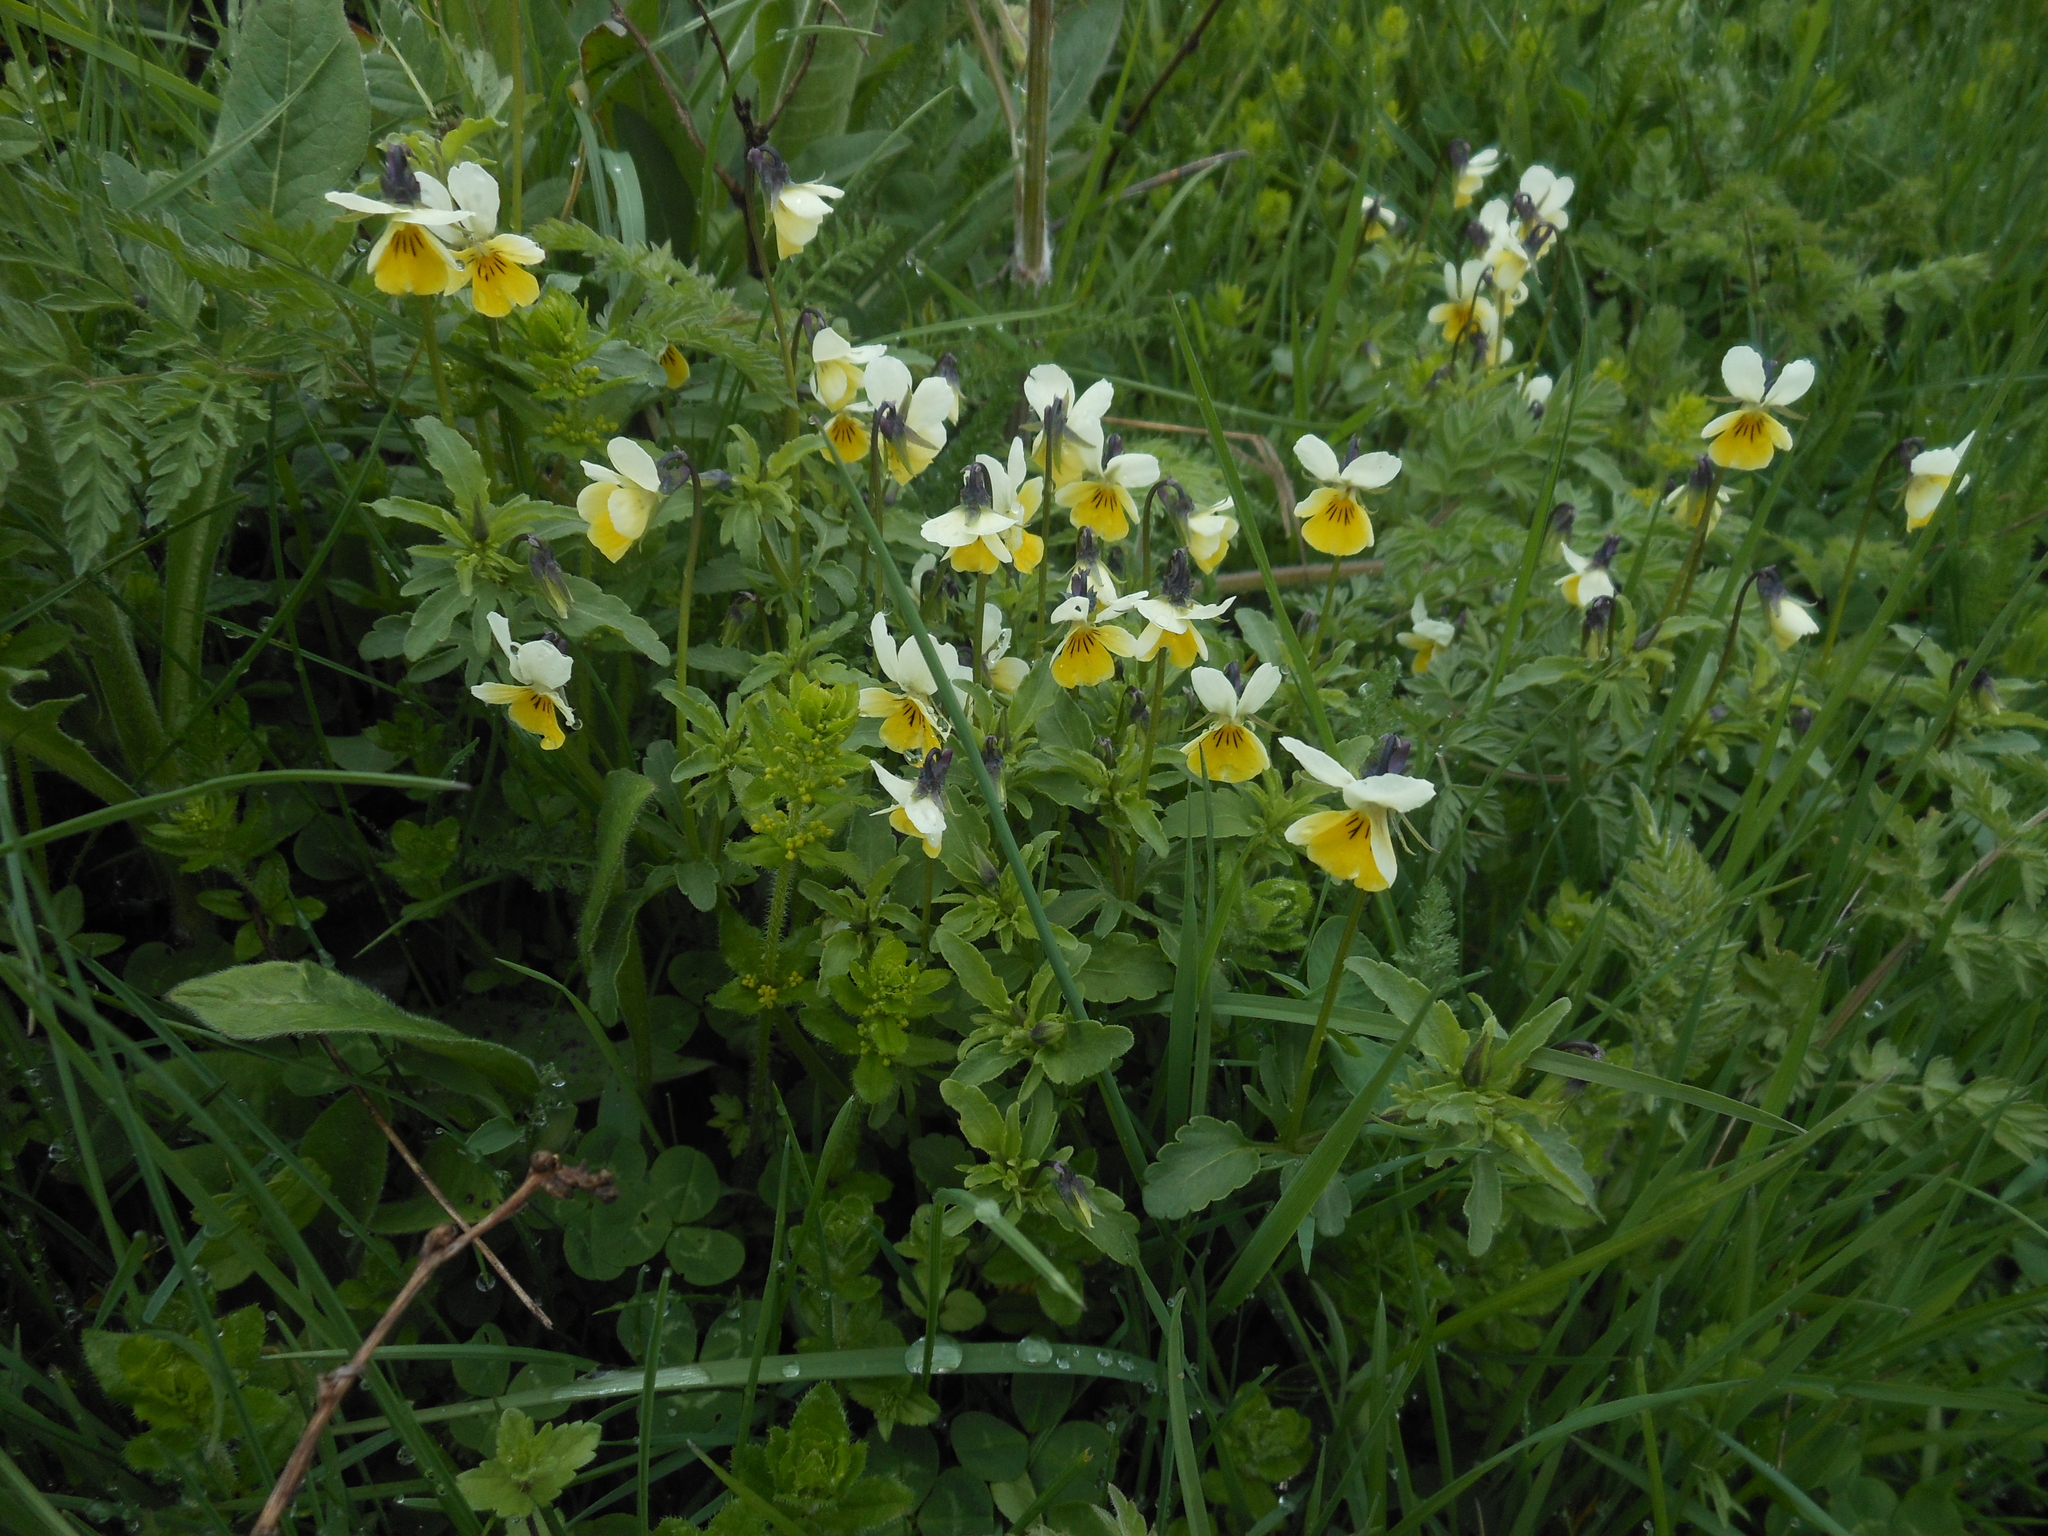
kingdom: Plantae
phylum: Tracheophyta
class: Magnoliopsida
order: Malpighiales
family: Violaceae
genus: Viola
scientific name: Viola tricolor
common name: Pansy
